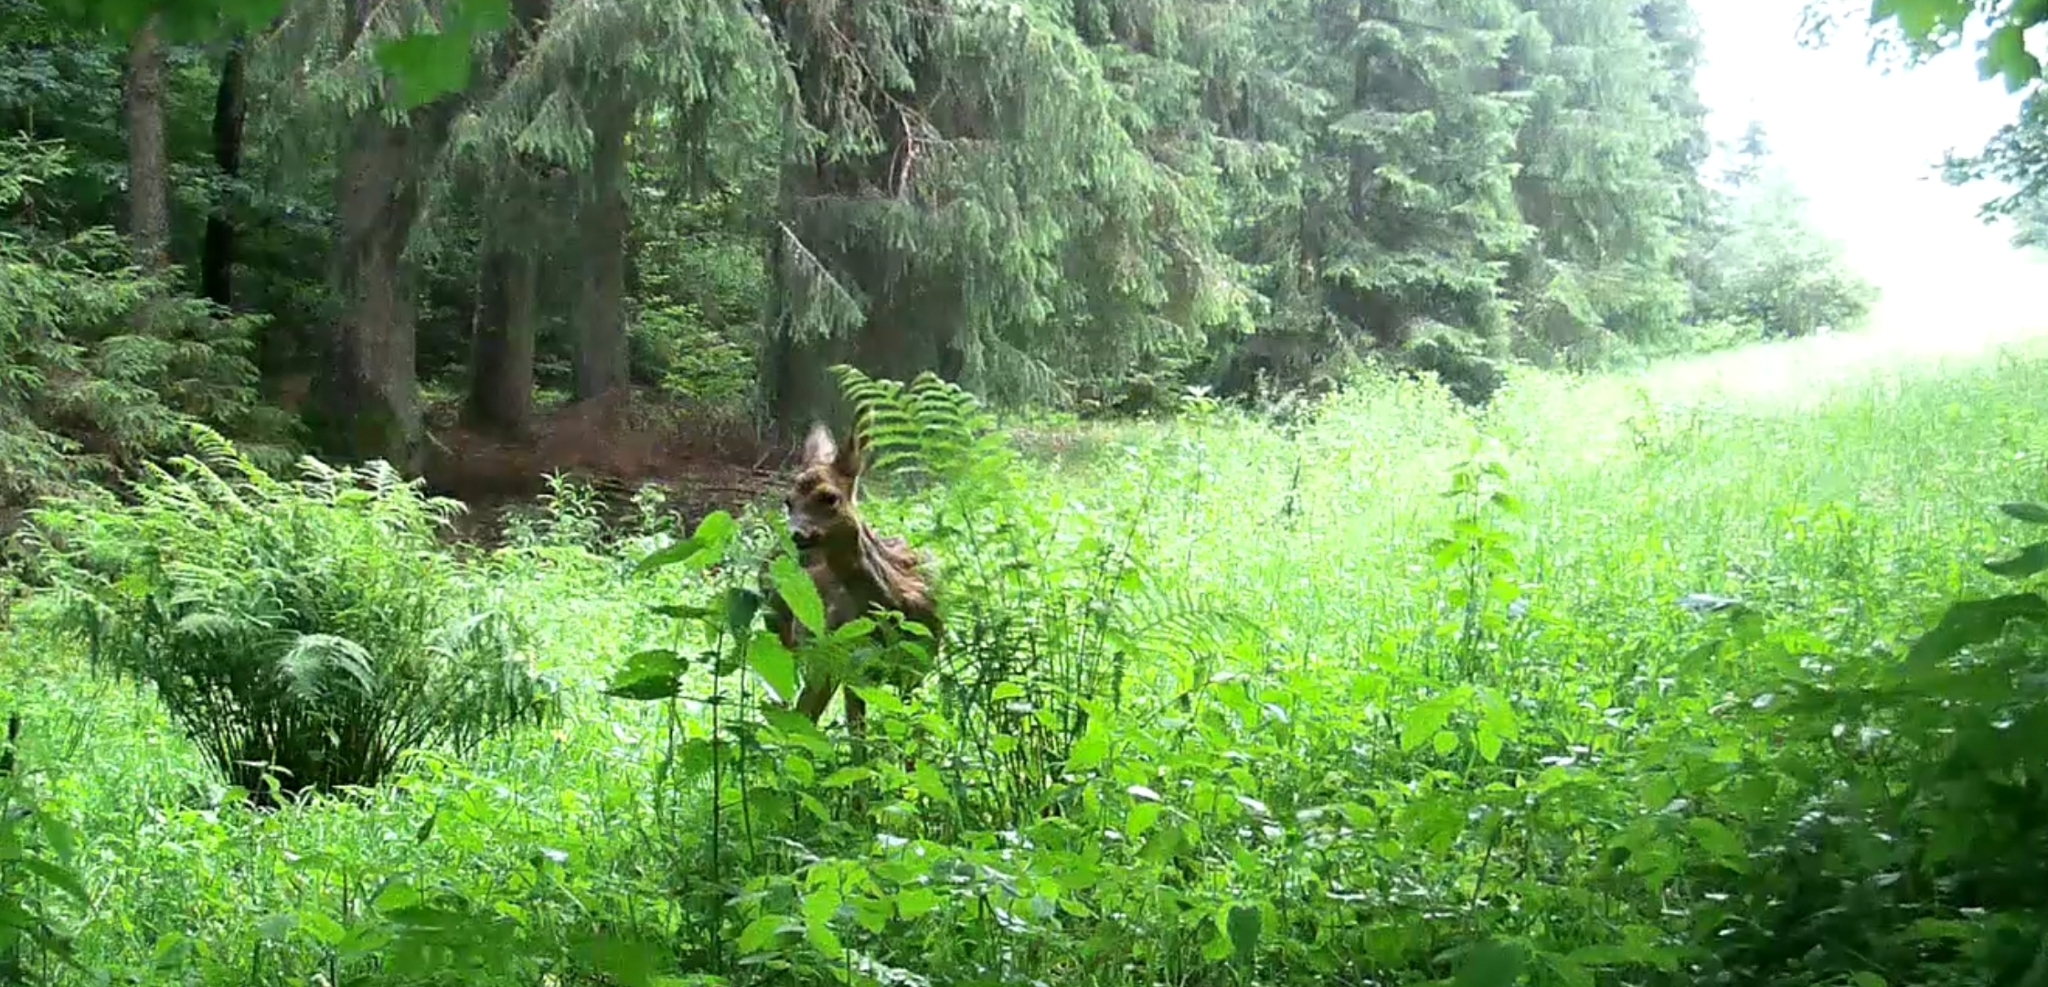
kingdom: Animalia
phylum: Chordata
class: Mammalia
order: Artiodactyla
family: Cervidae
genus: Capreolus
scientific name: Capreolus capreolus
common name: Western roe deer
